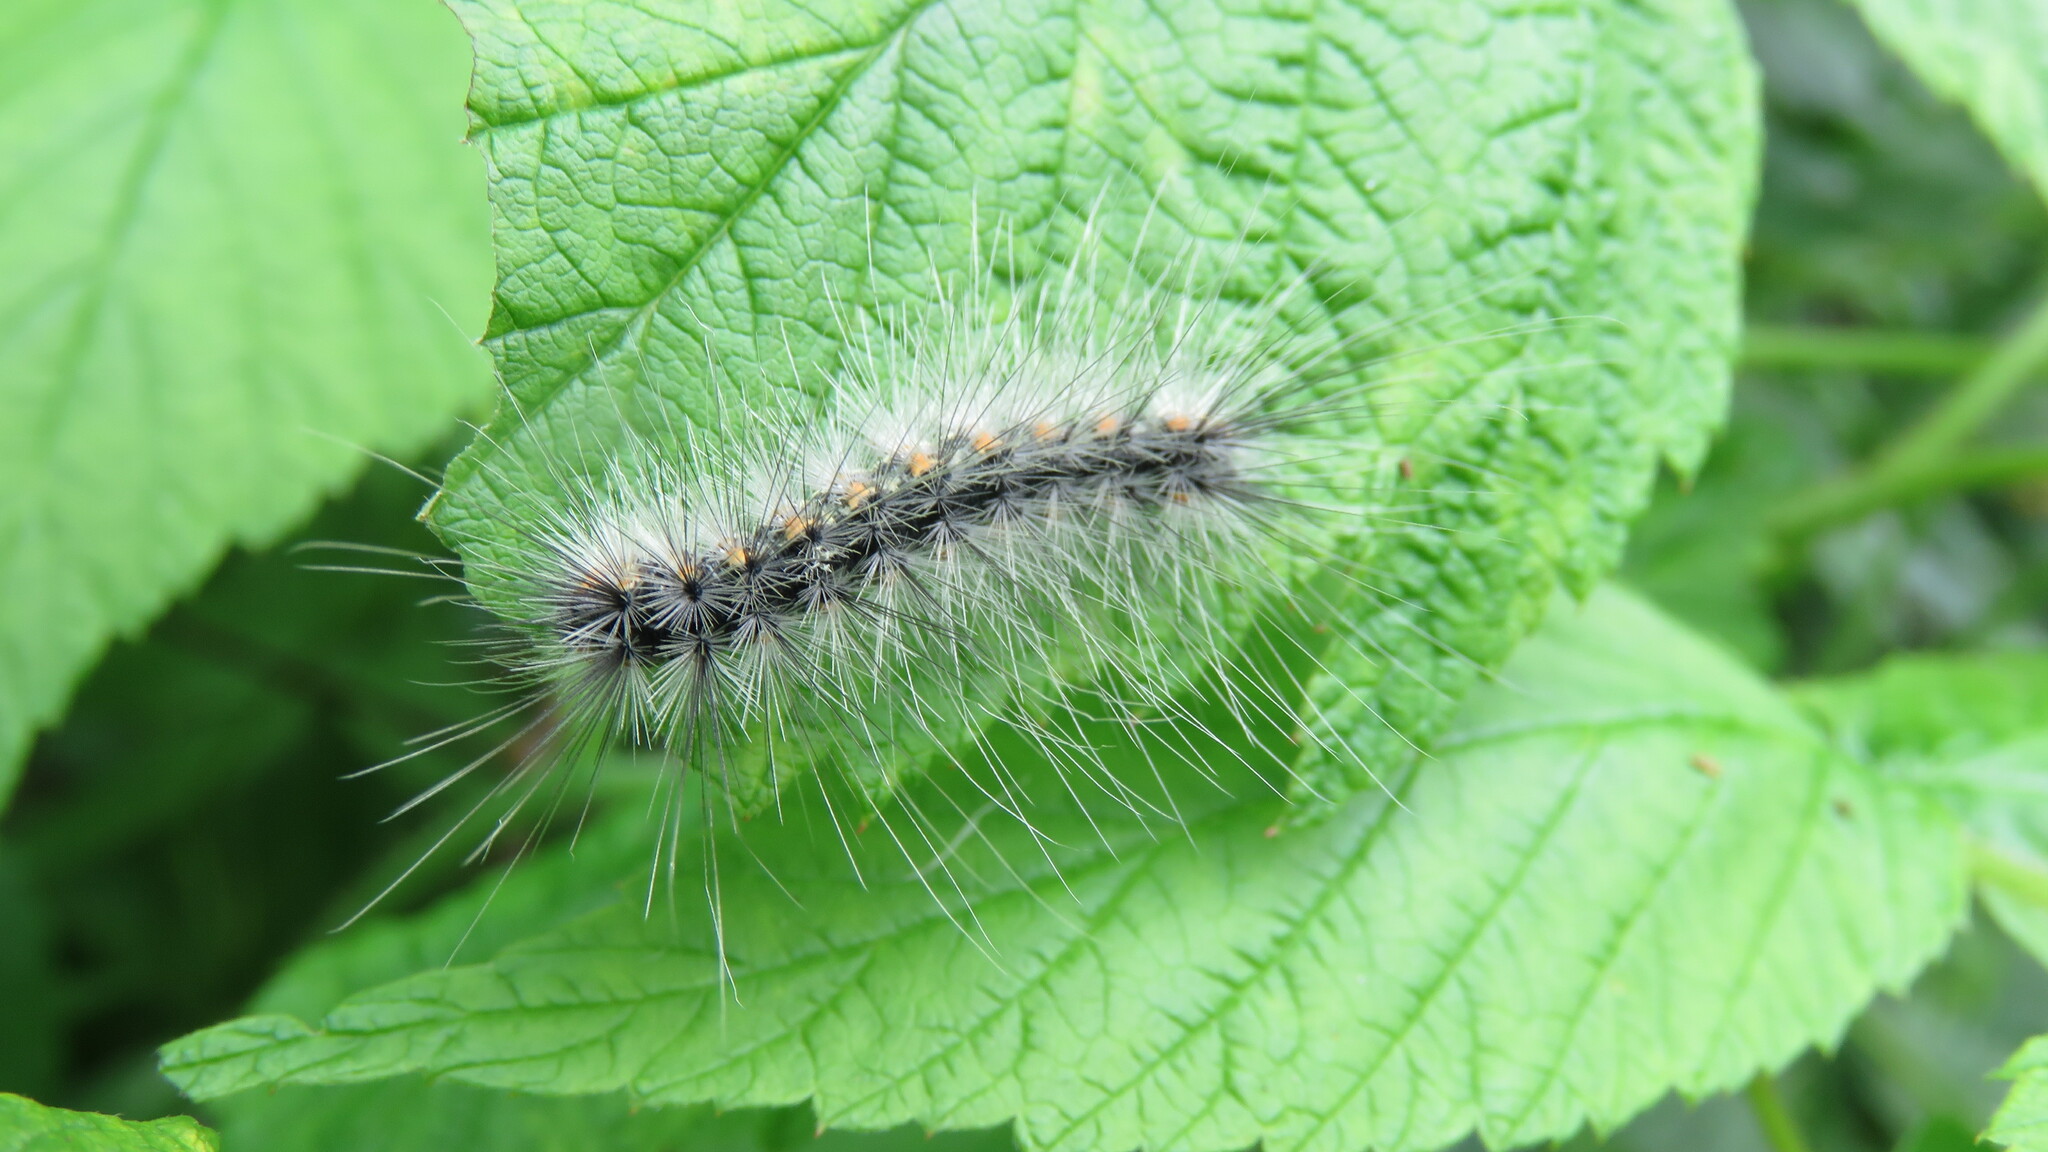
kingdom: Animalia
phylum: Arthropoda
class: Insecta
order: Lepidoptera
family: Erebidae
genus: Hyphantria
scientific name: Hyphantria cunea
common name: American white moth
